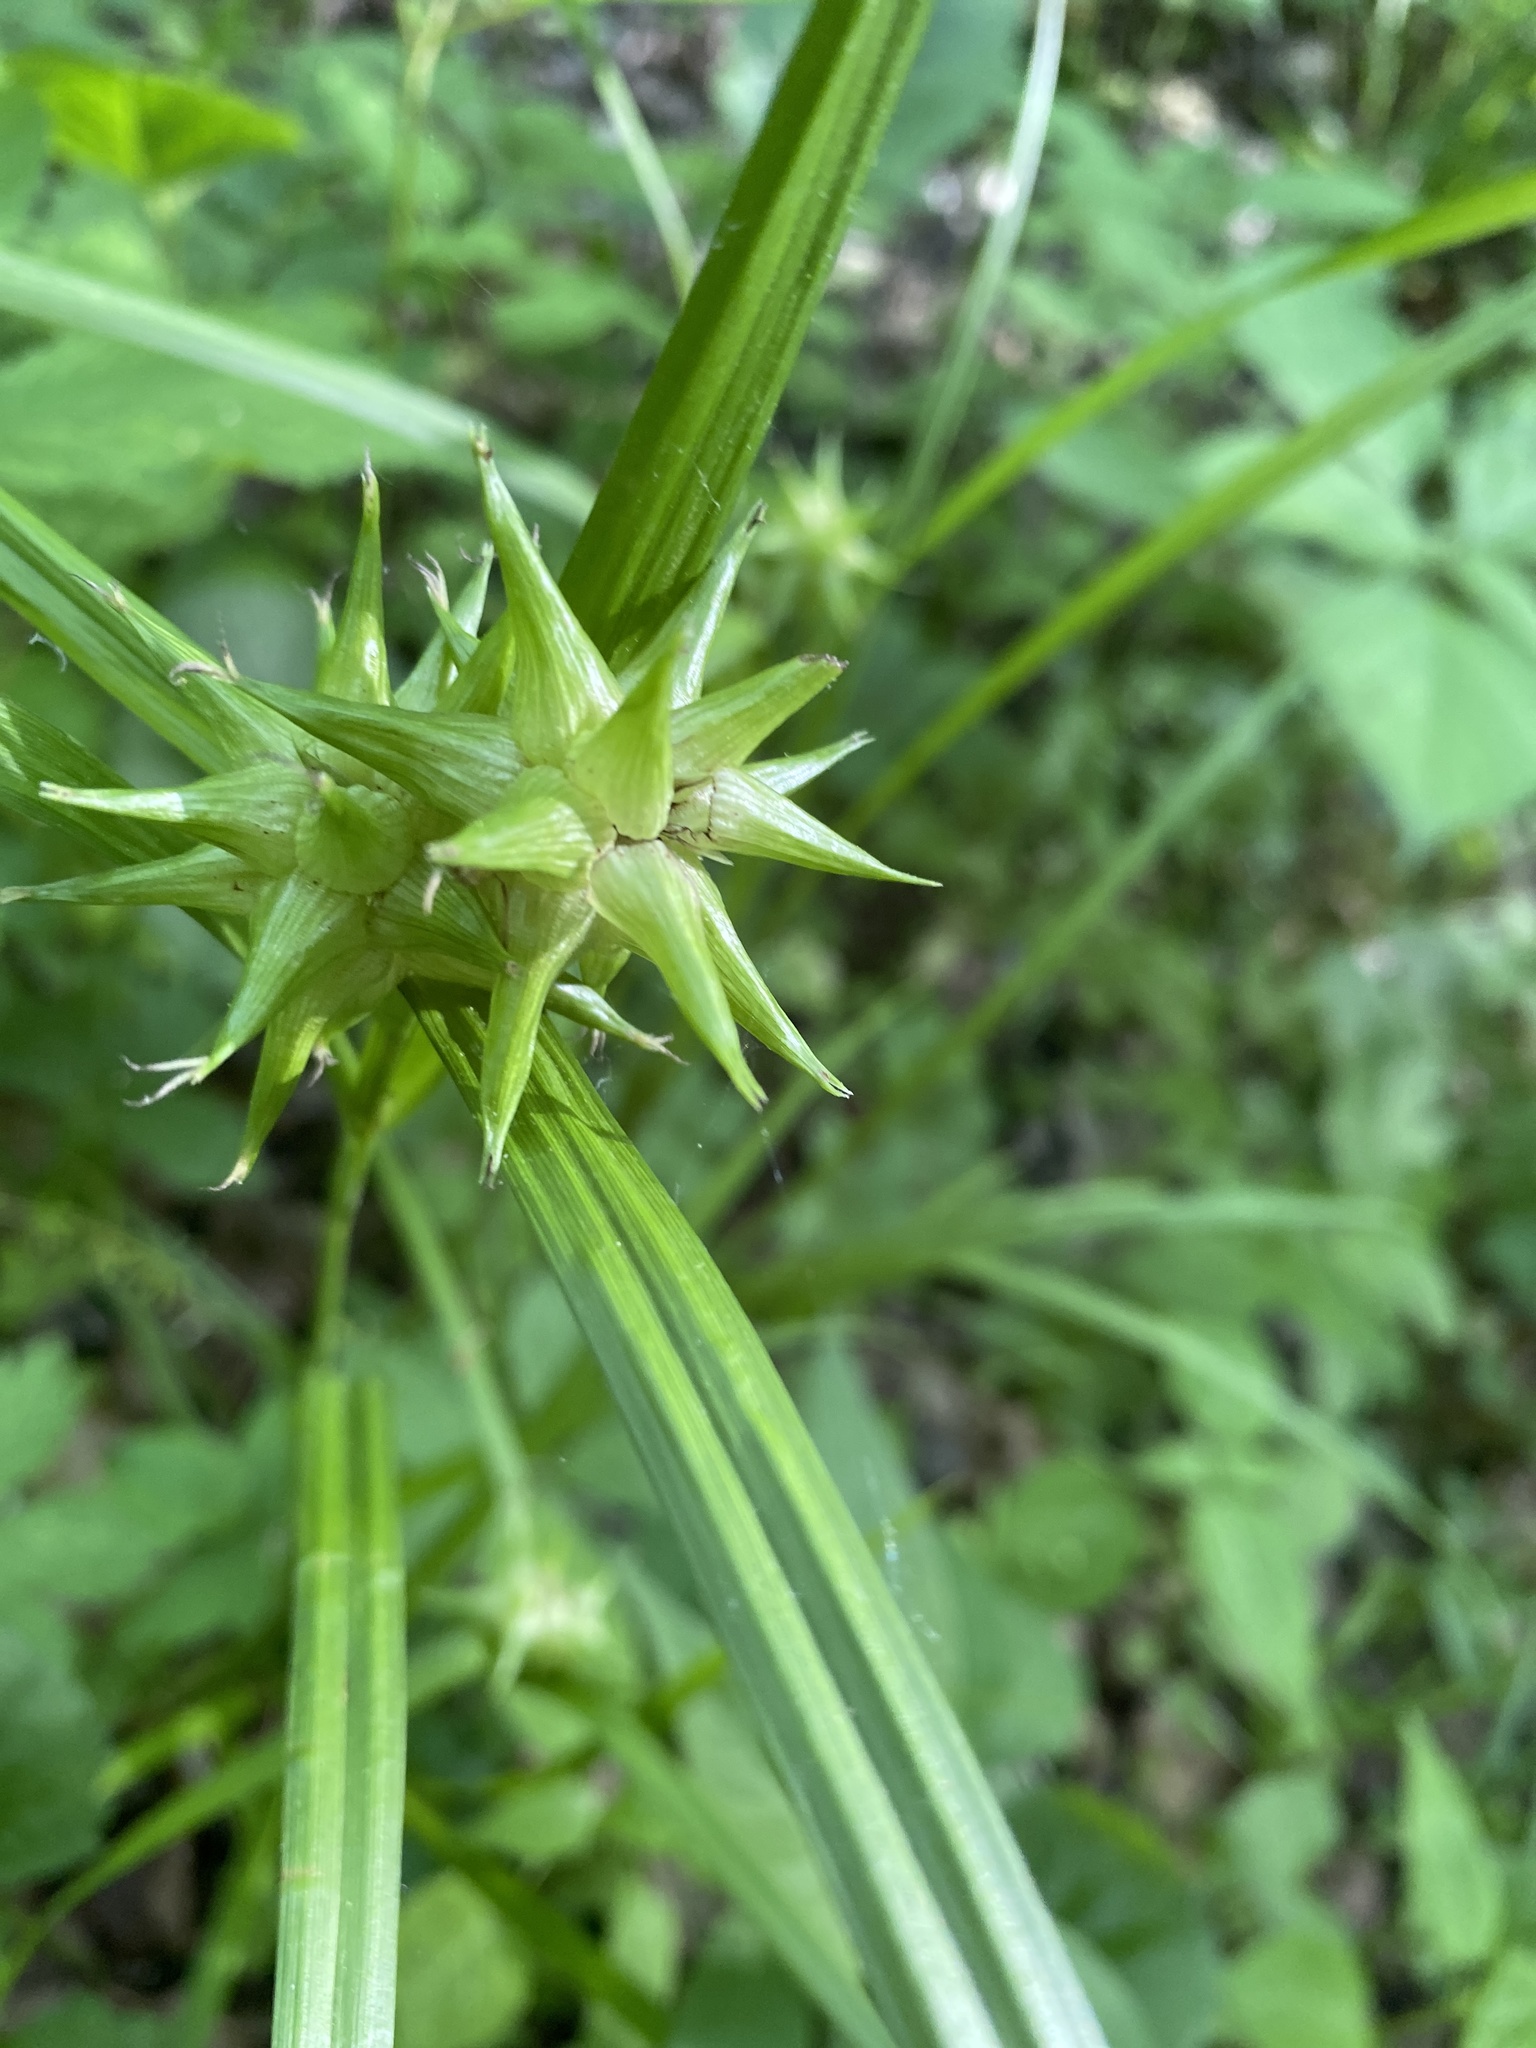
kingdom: Plantae
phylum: Tracheophyta
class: Liliopsida
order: Poales
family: Cyperaceae
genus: Carex
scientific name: Carex grayi
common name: Asa gray's sedge
